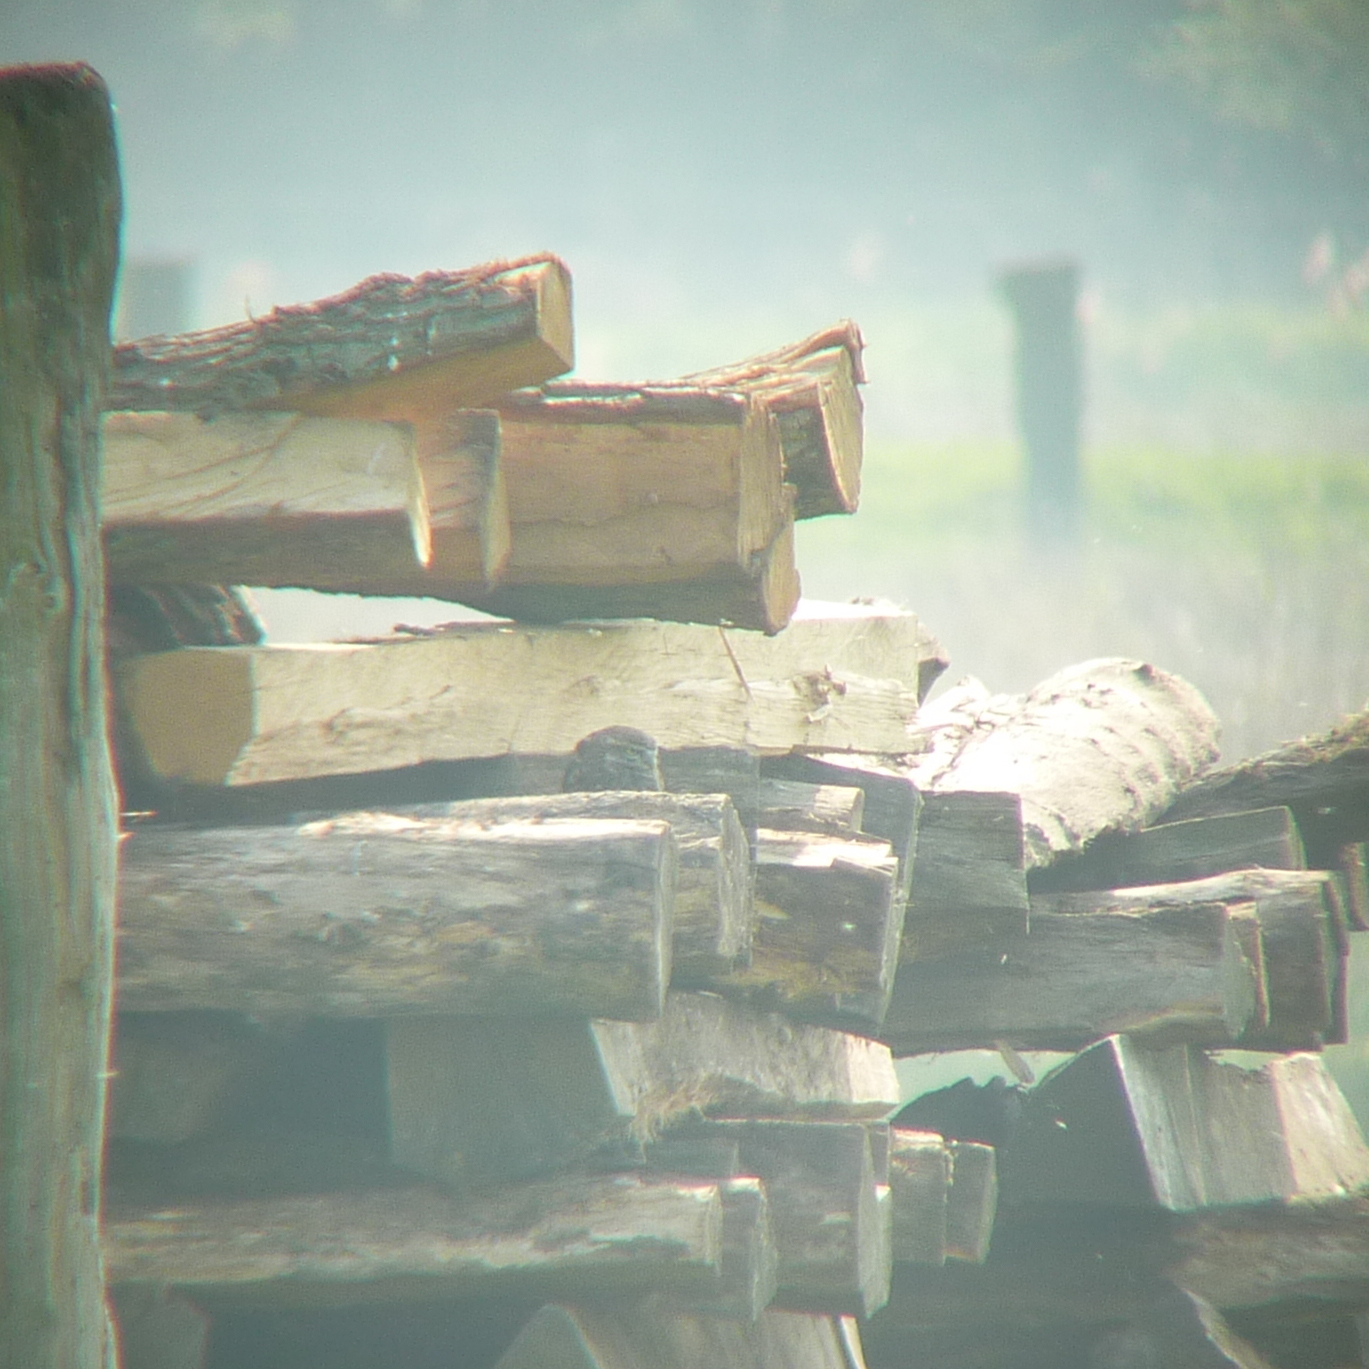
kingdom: Animalia
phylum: Chordata
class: Aves
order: Strigiformes
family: Strigidae
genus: Athene
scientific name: Athene noctua
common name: Little owl
